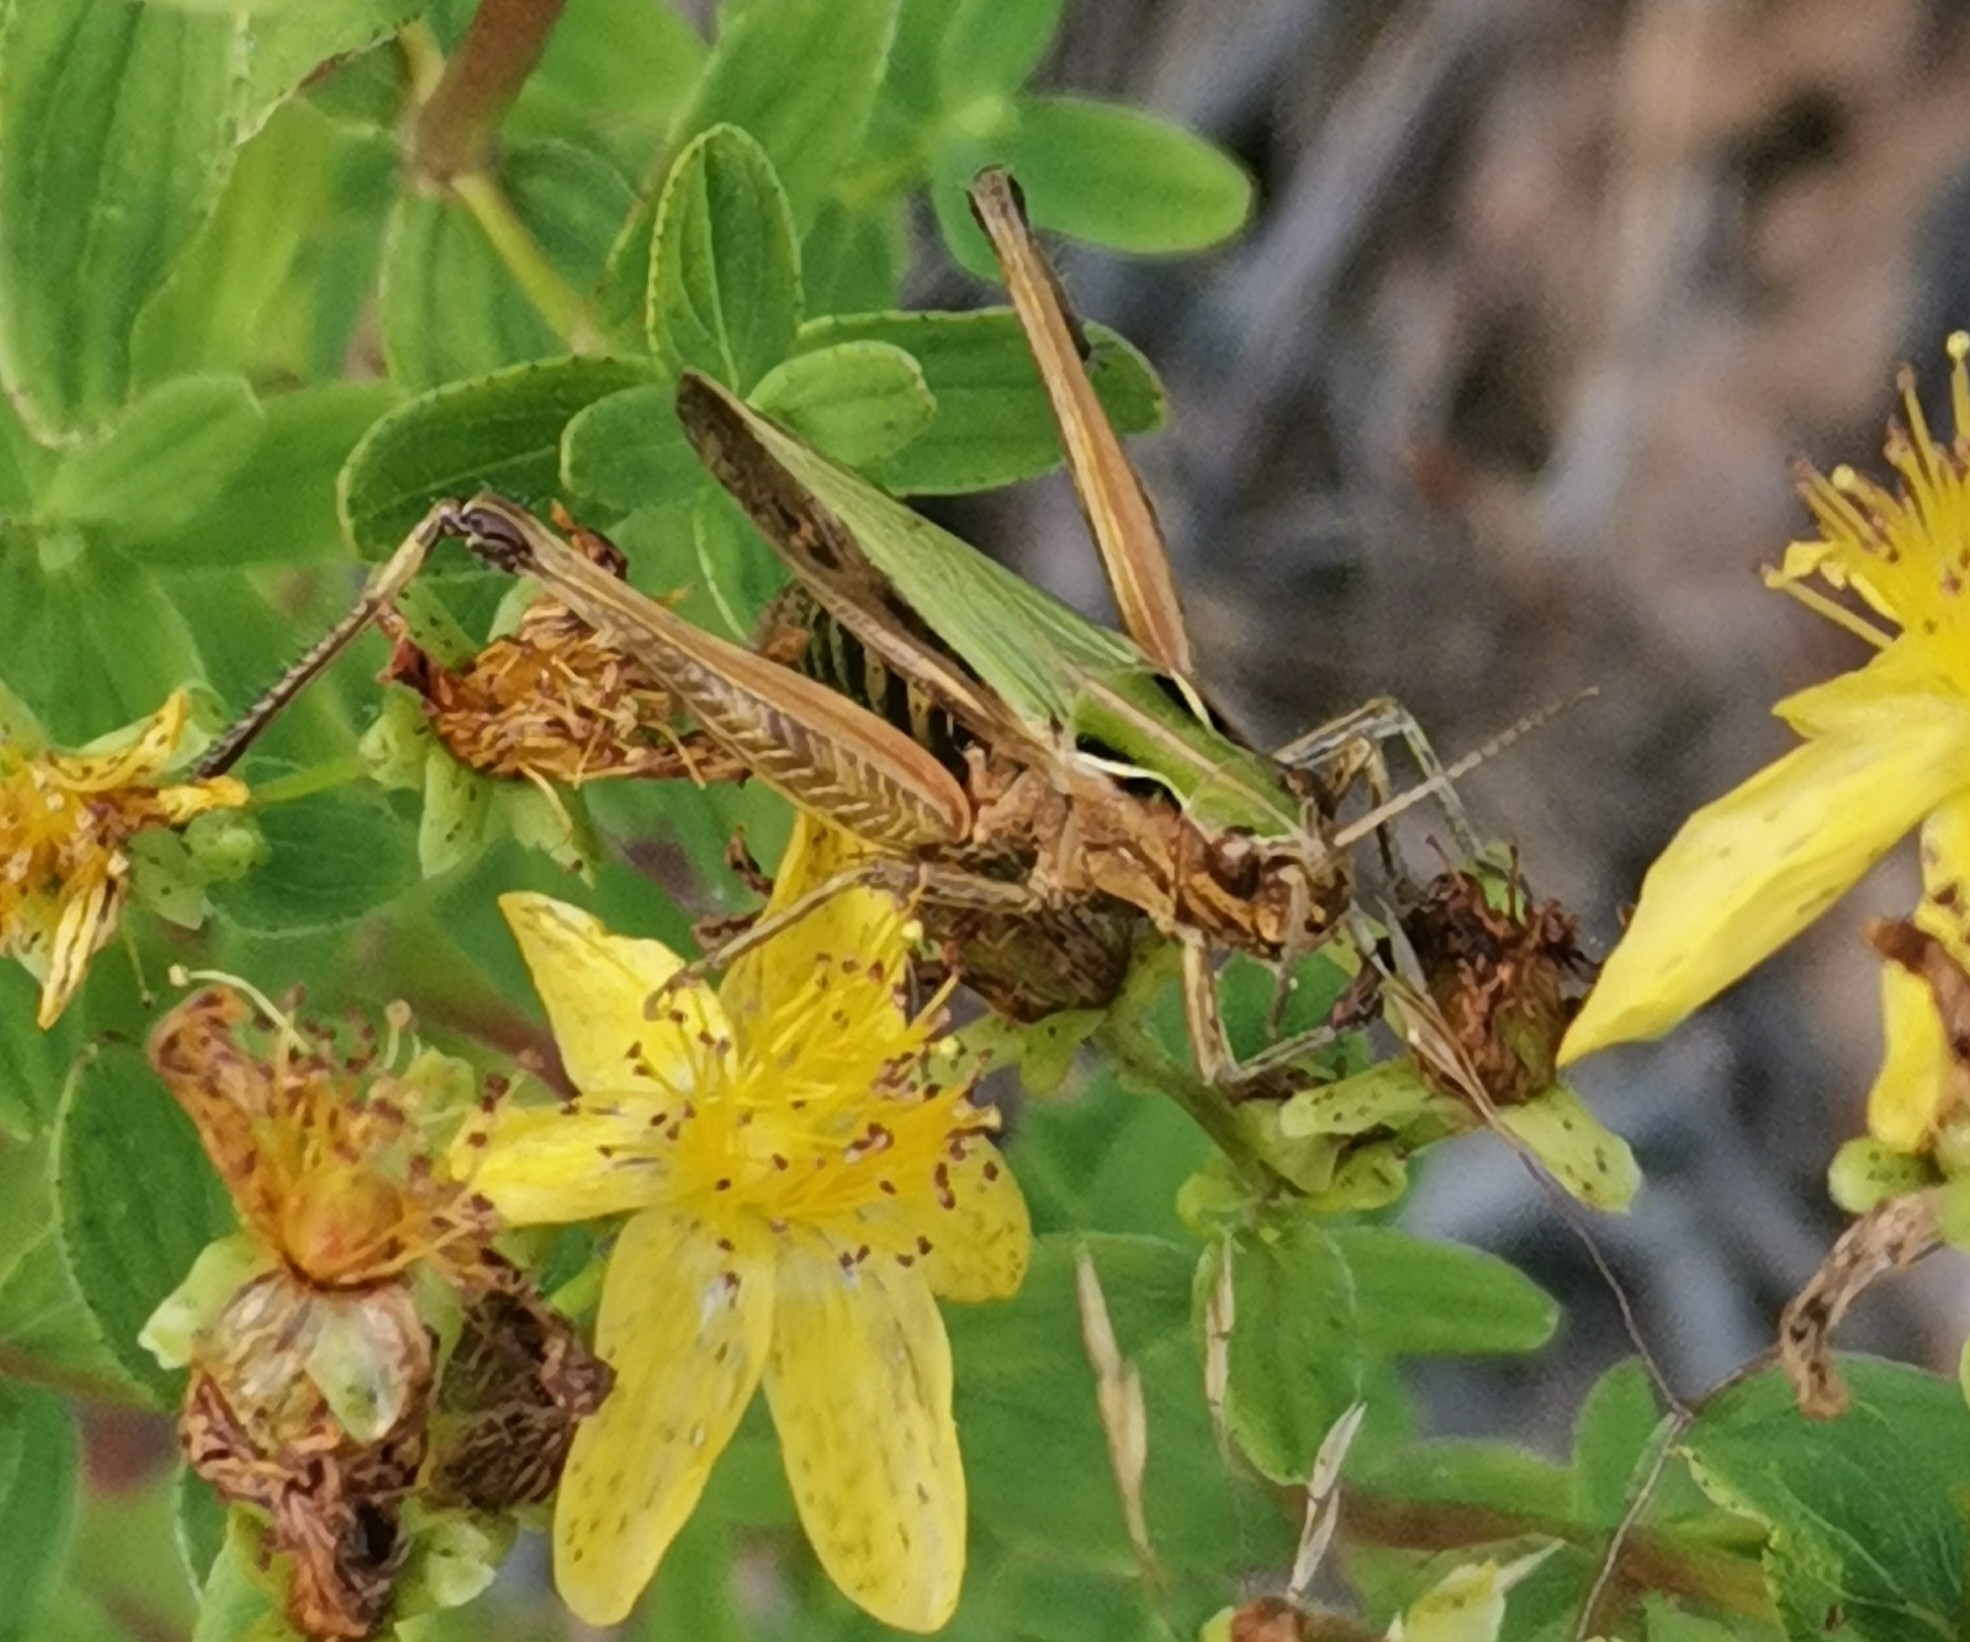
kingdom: Animalia
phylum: Arthropoda
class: Insecta
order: Orthoptera
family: Acrididae
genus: Omocestus
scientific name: Omocestus viridulus
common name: Common green grasshopper
